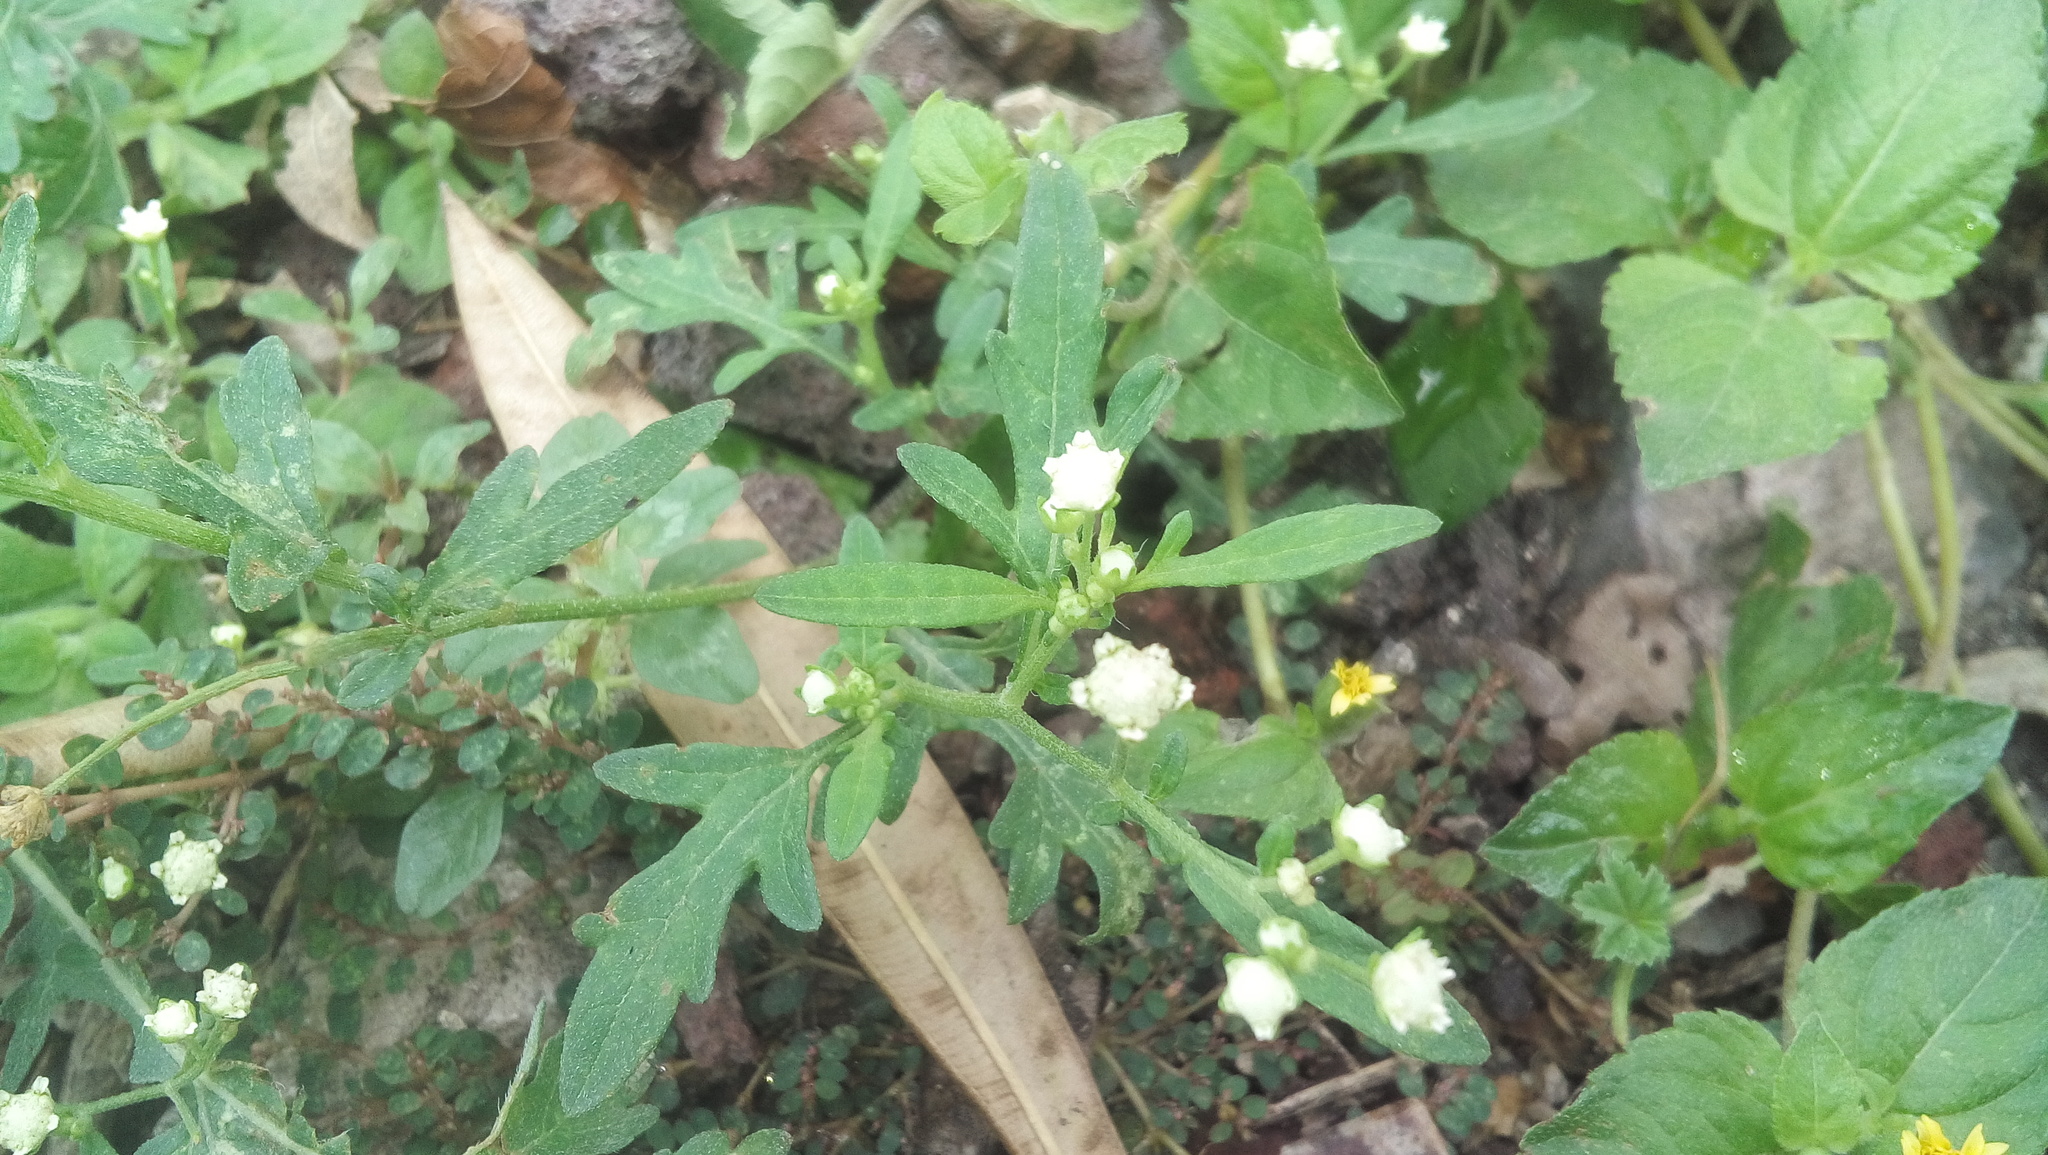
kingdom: Plantae
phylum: Tracheophyta
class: Magnoliopsida
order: Asterales
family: Asteraceae
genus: Parthenium
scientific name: Parthenium hysterophorus
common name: Santa maria feverfew
